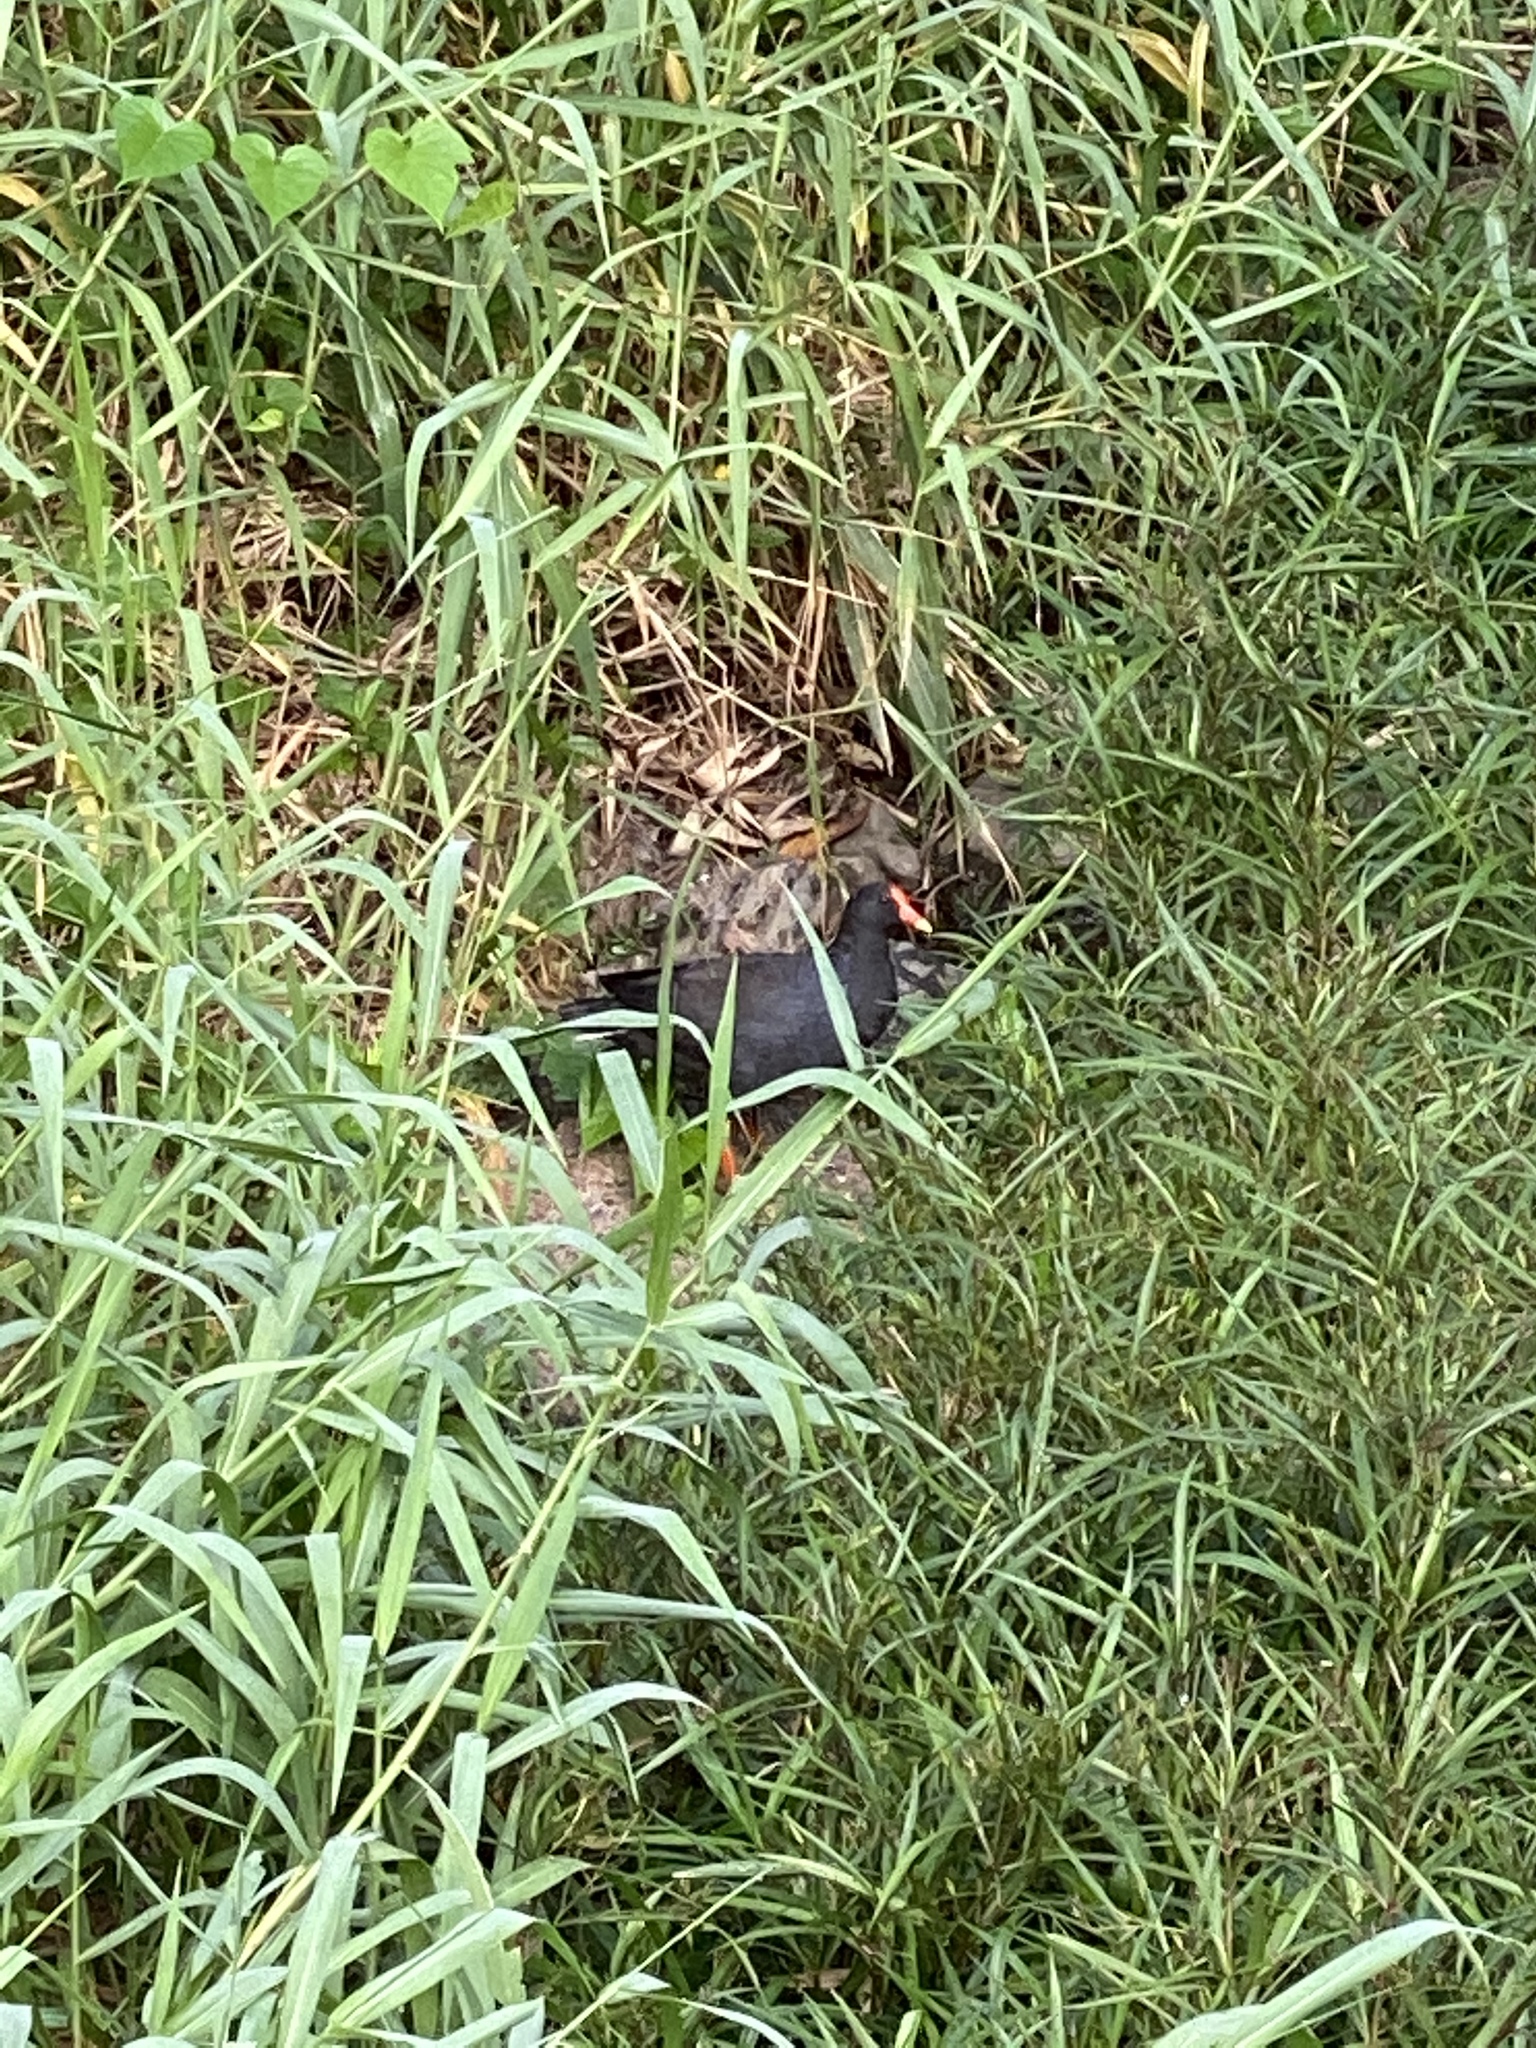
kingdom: Animalia
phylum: Chordata
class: Aves
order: Gruiformes
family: Rallidae
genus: Gallinula
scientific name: Gallinula tenebrosa
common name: Dusky moorhen
